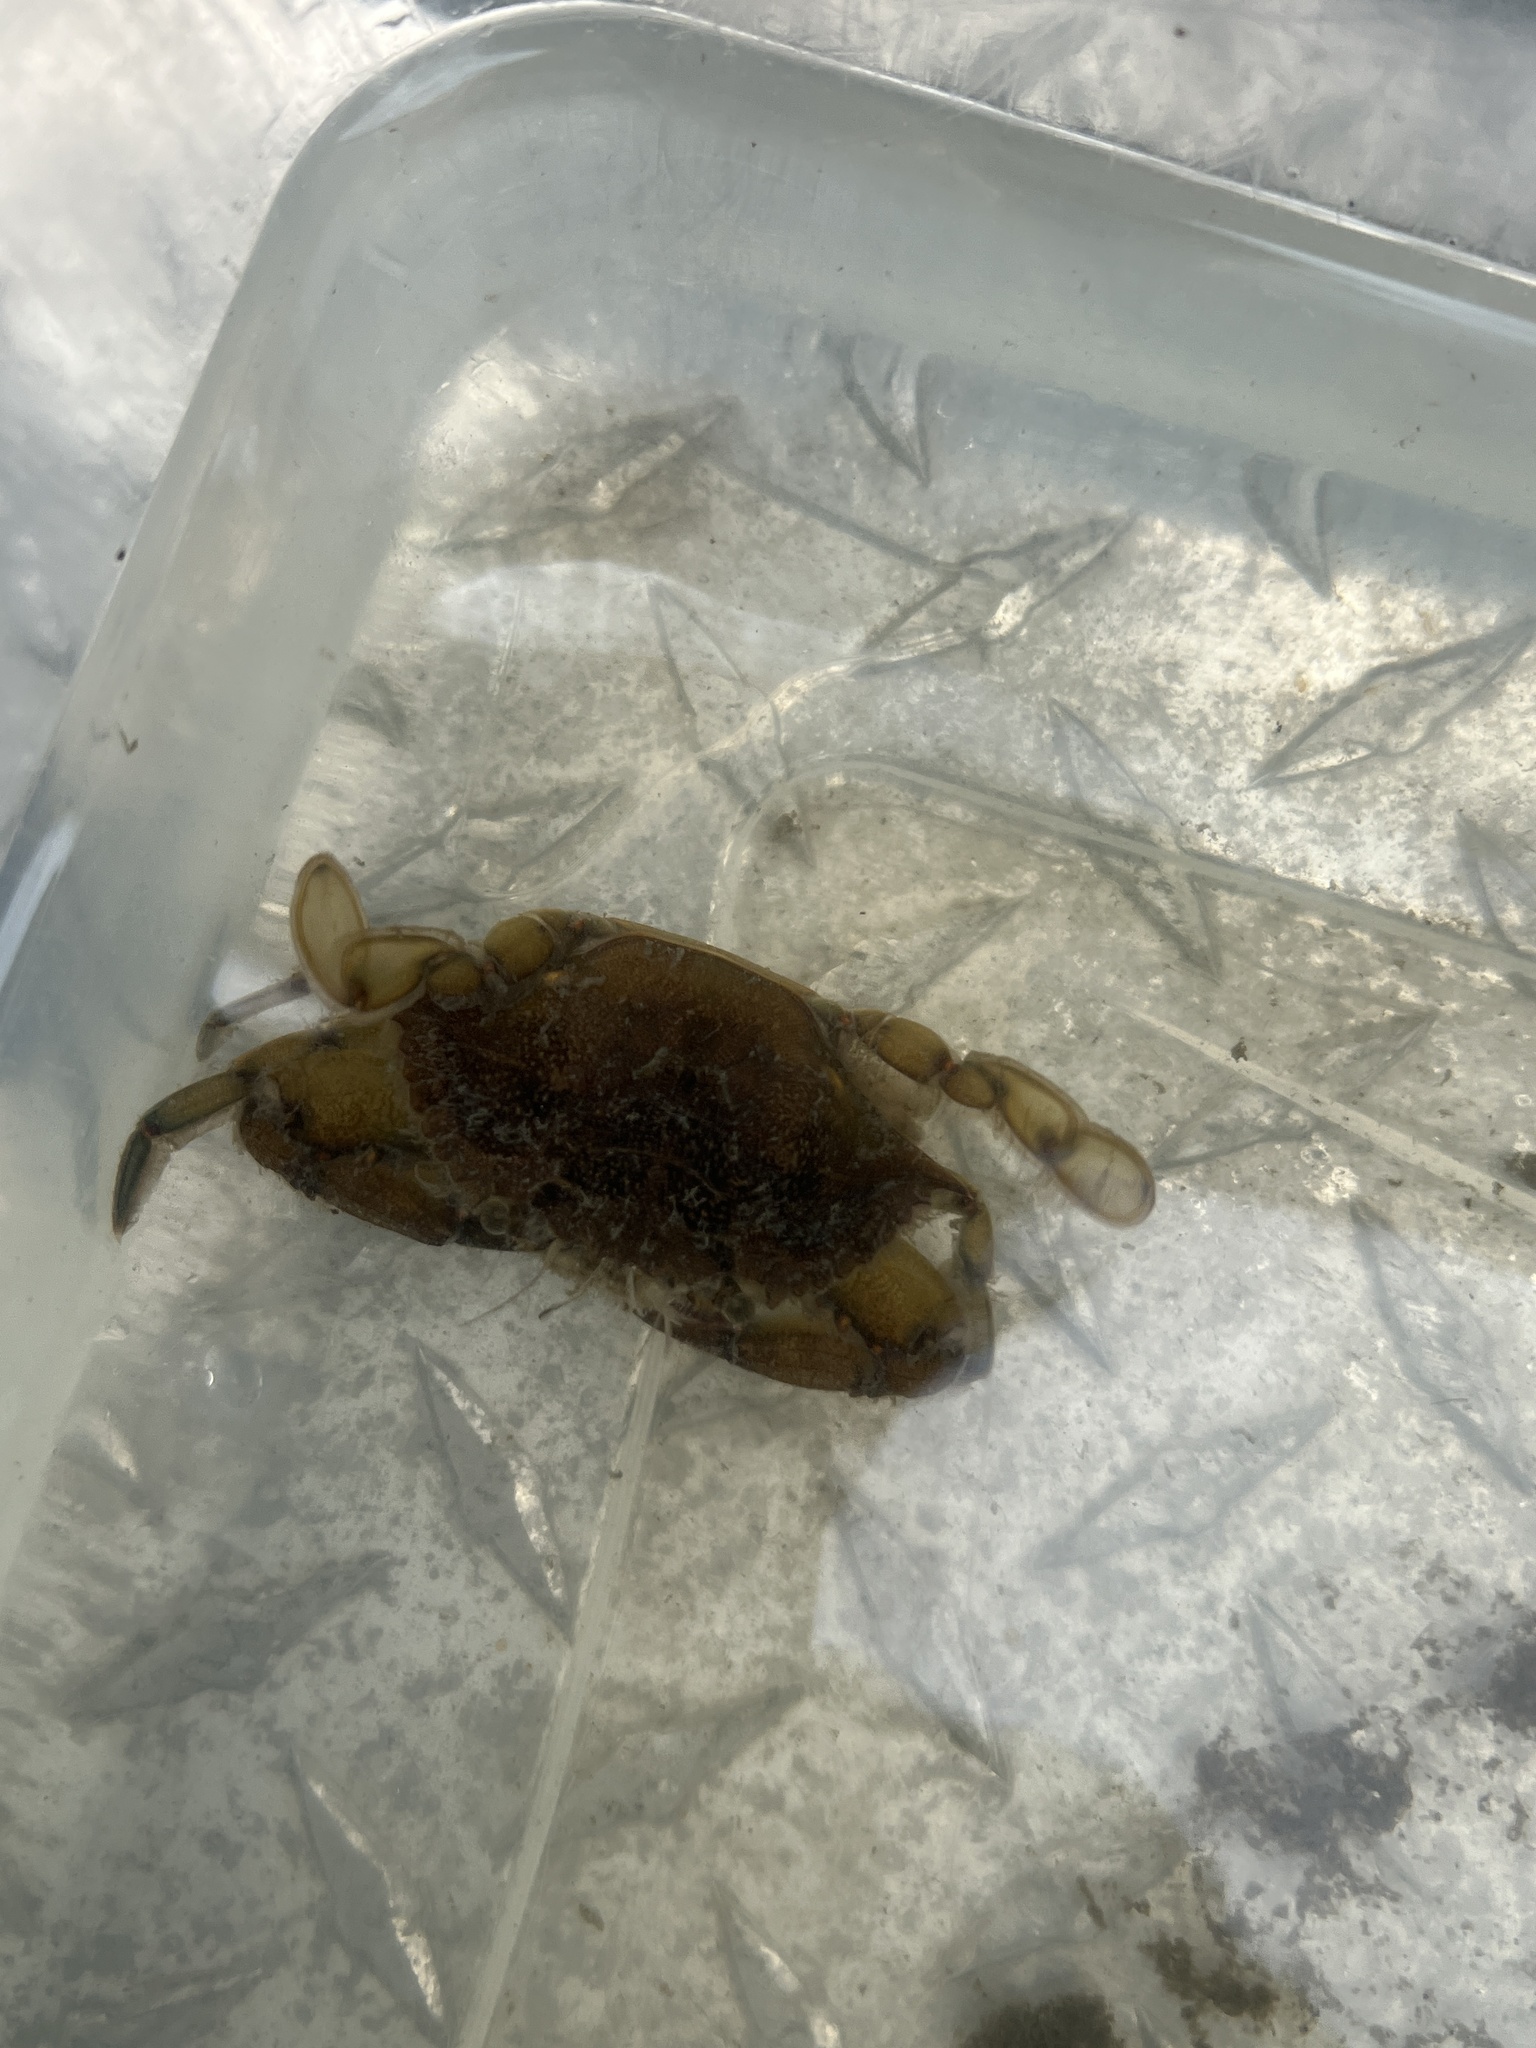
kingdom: Animalia
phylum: Arthropoda
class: Malacostraca
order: Decapoda
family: Portunidae
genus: Callinectes
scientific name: Callinectes sapidus
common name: Blue crab
